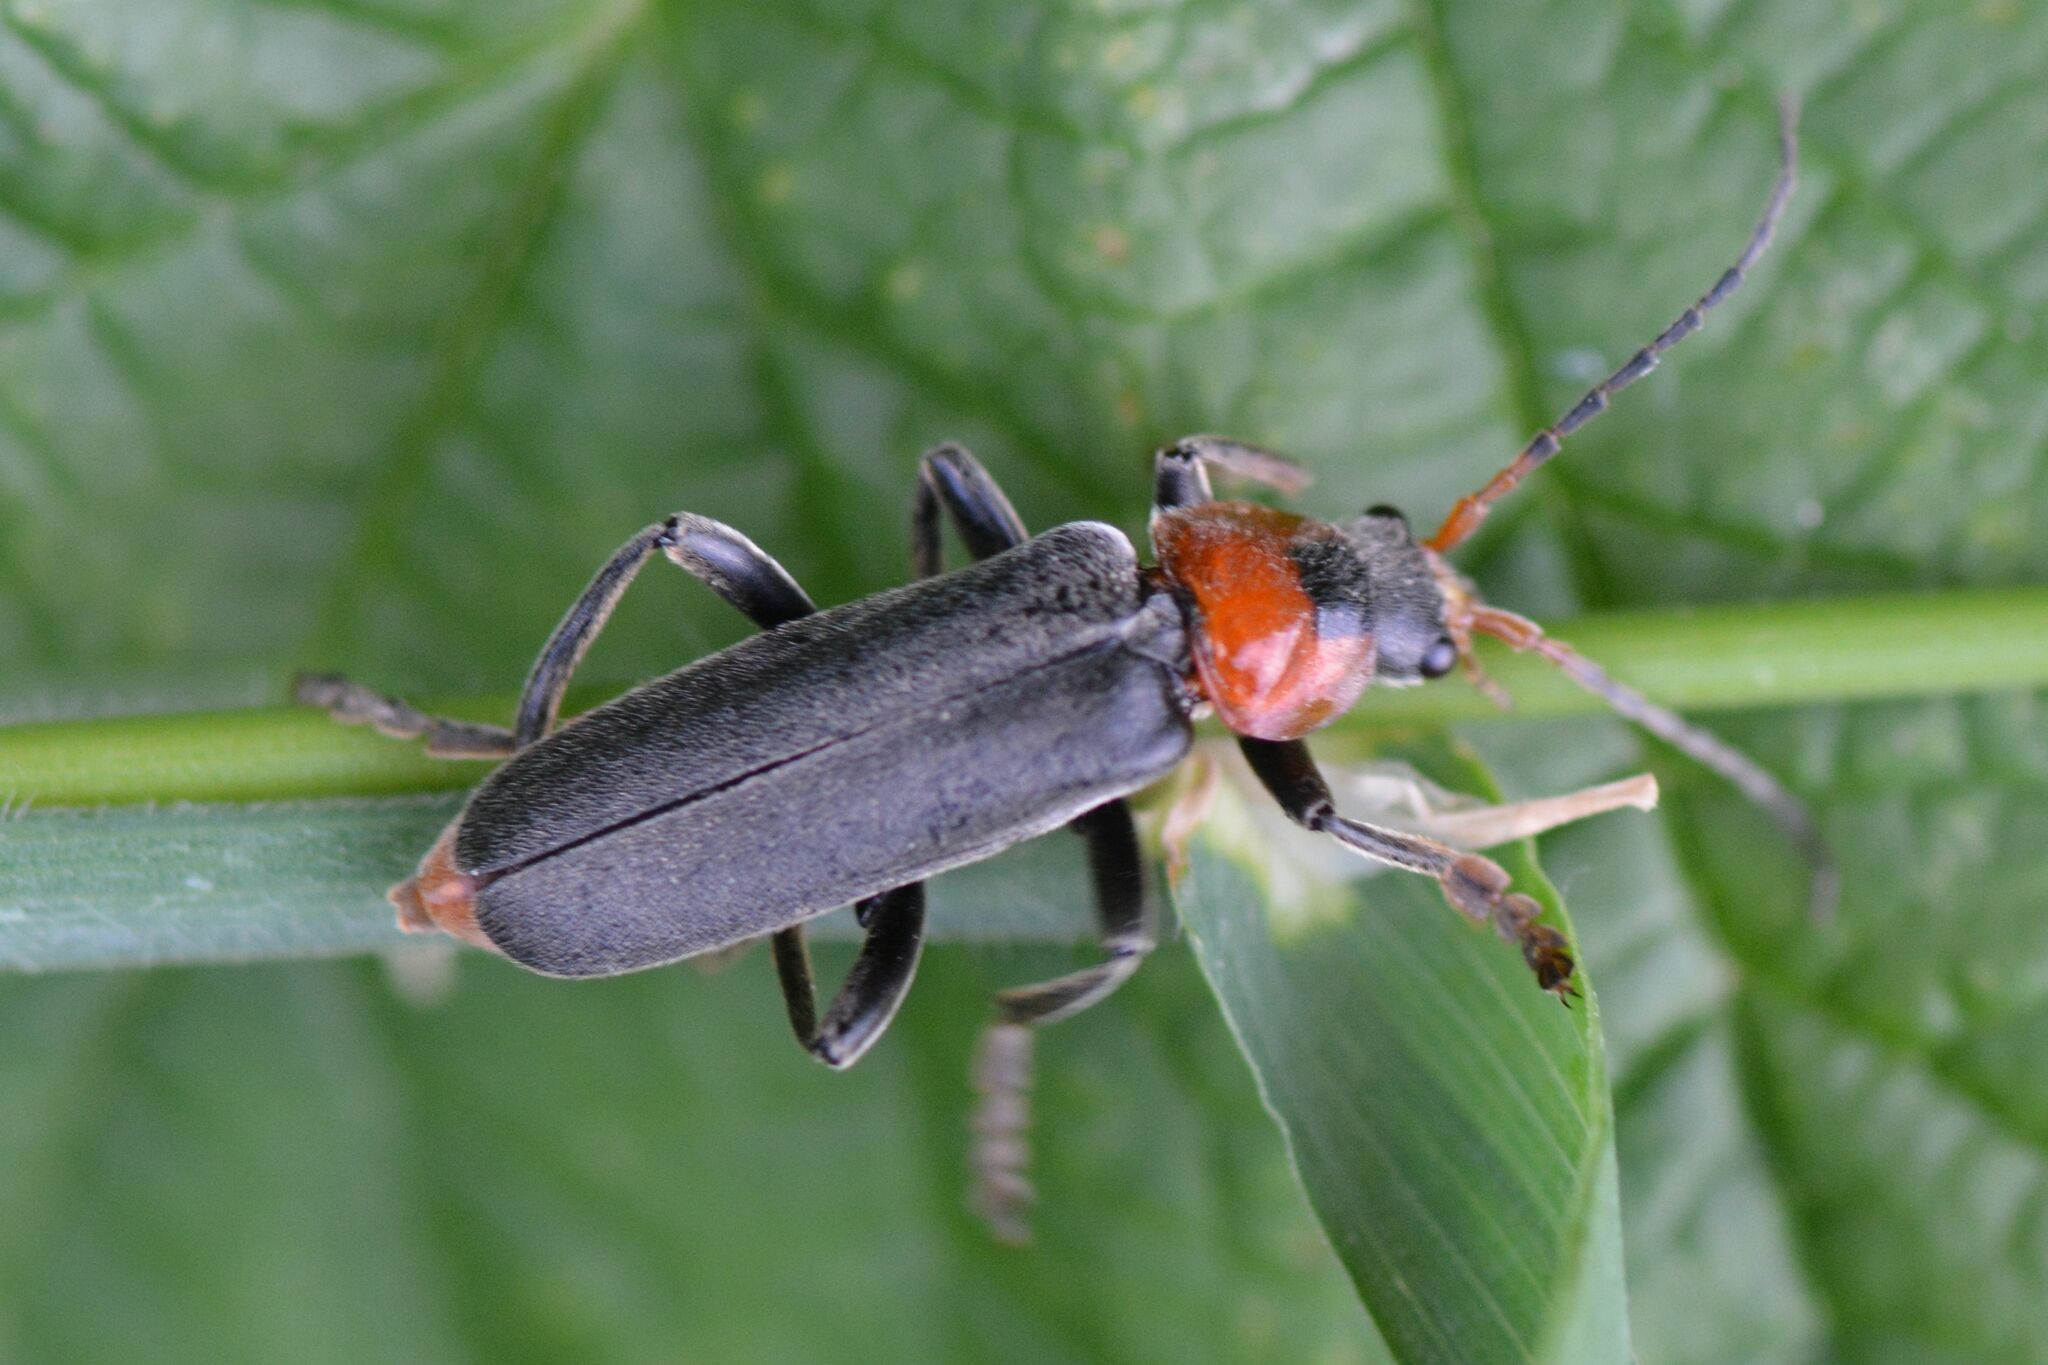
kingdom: Animalia
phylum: Arthropoda
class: Insecta
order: Coleoptera
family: Cantharidae
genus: Cantharis
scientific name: Cantharis fusca
